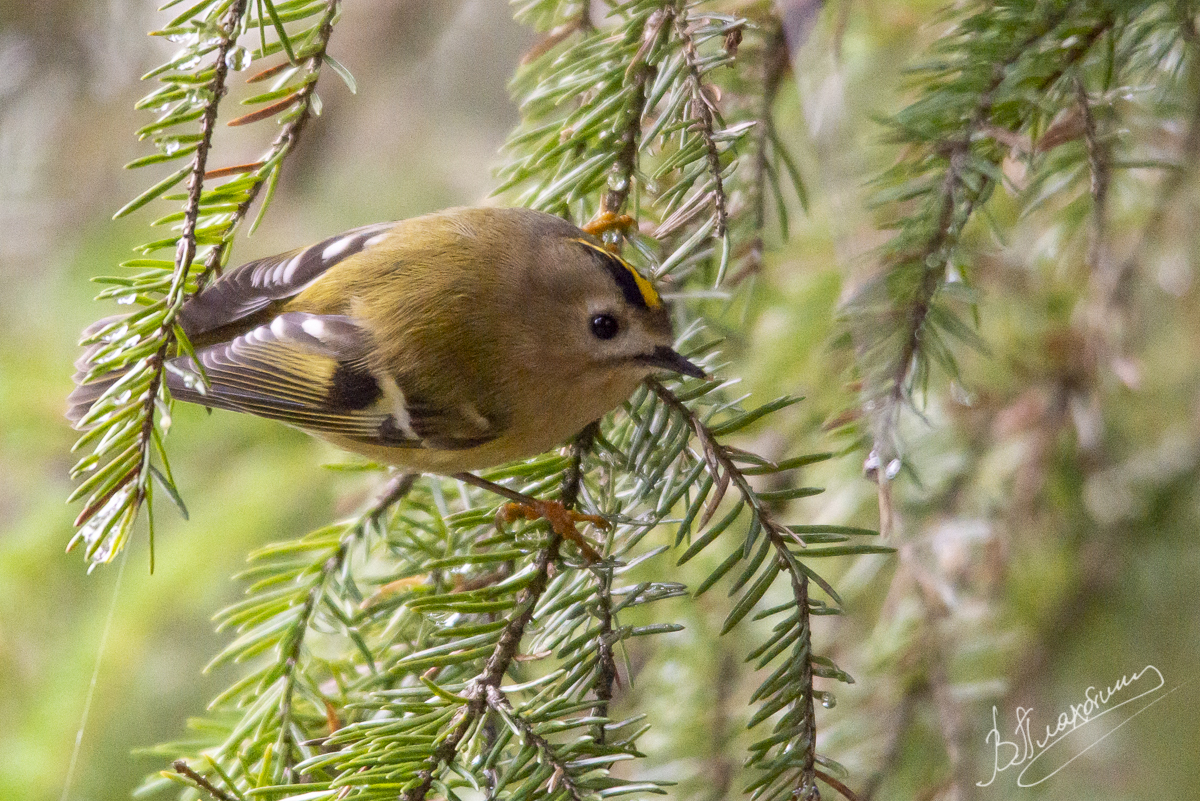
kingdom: Animalia
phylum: Chordata
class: Aves
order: Passeriformes
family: Regulidae
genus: Regulus
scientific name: Regulus regulus
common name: Goldcrest
